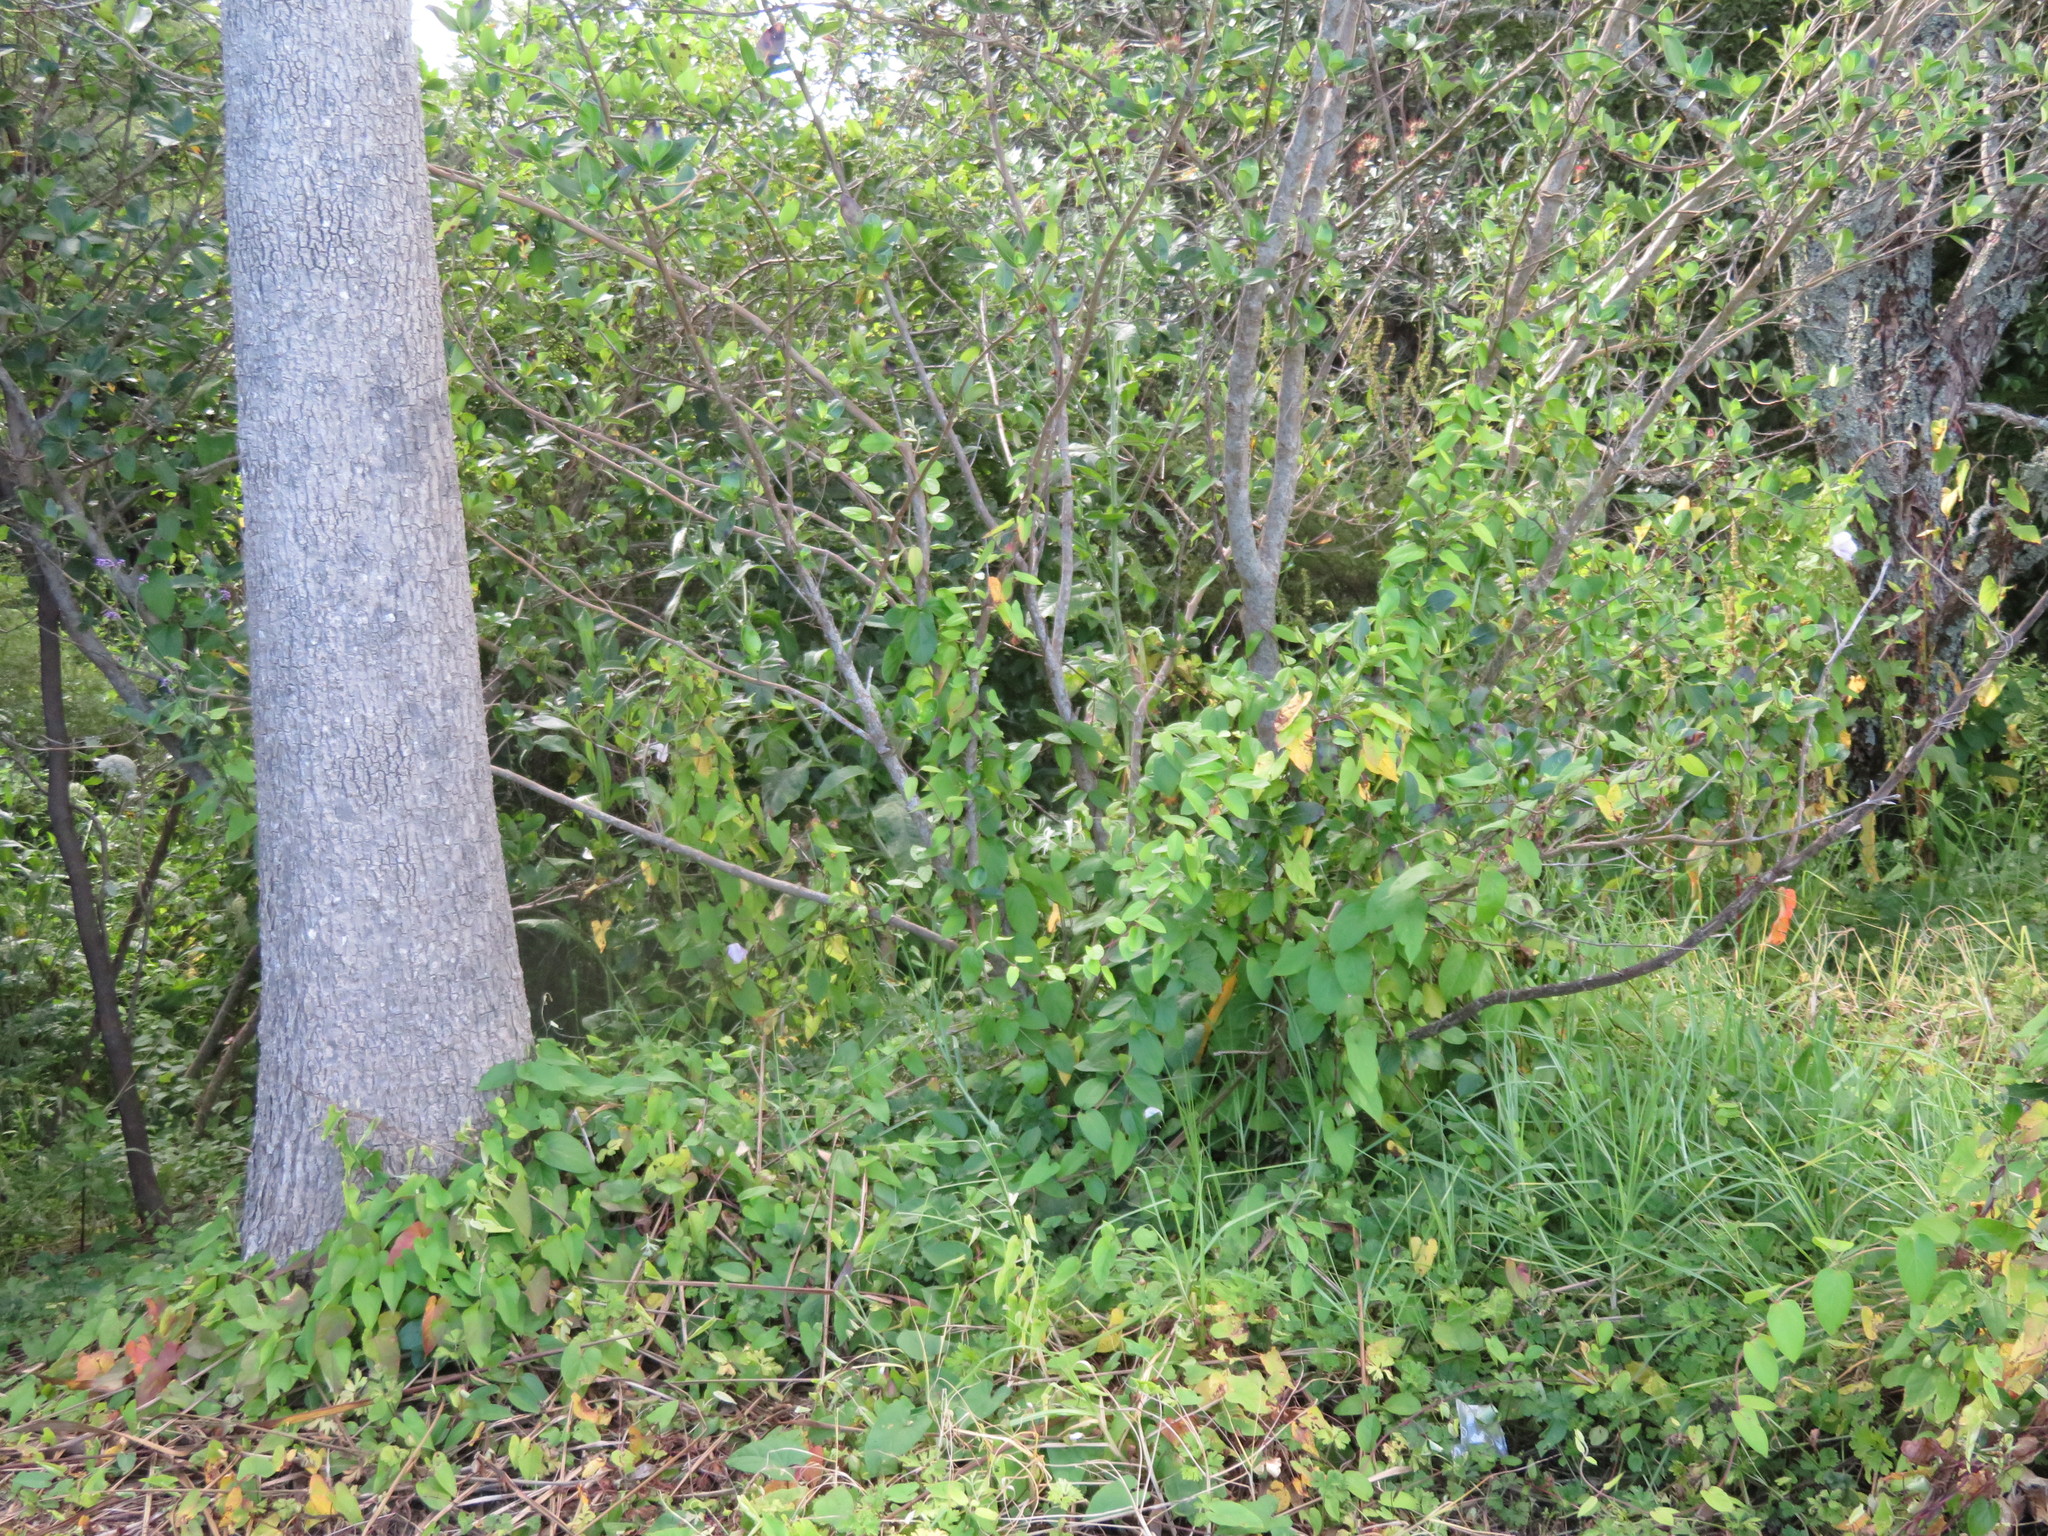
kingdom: Plantae
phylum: Tracheophyta
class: Liliopsida
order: Poales
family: Poaceae
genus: Cenchrus
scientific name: Cenchrus clandestinus
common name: Kikuyugrass
